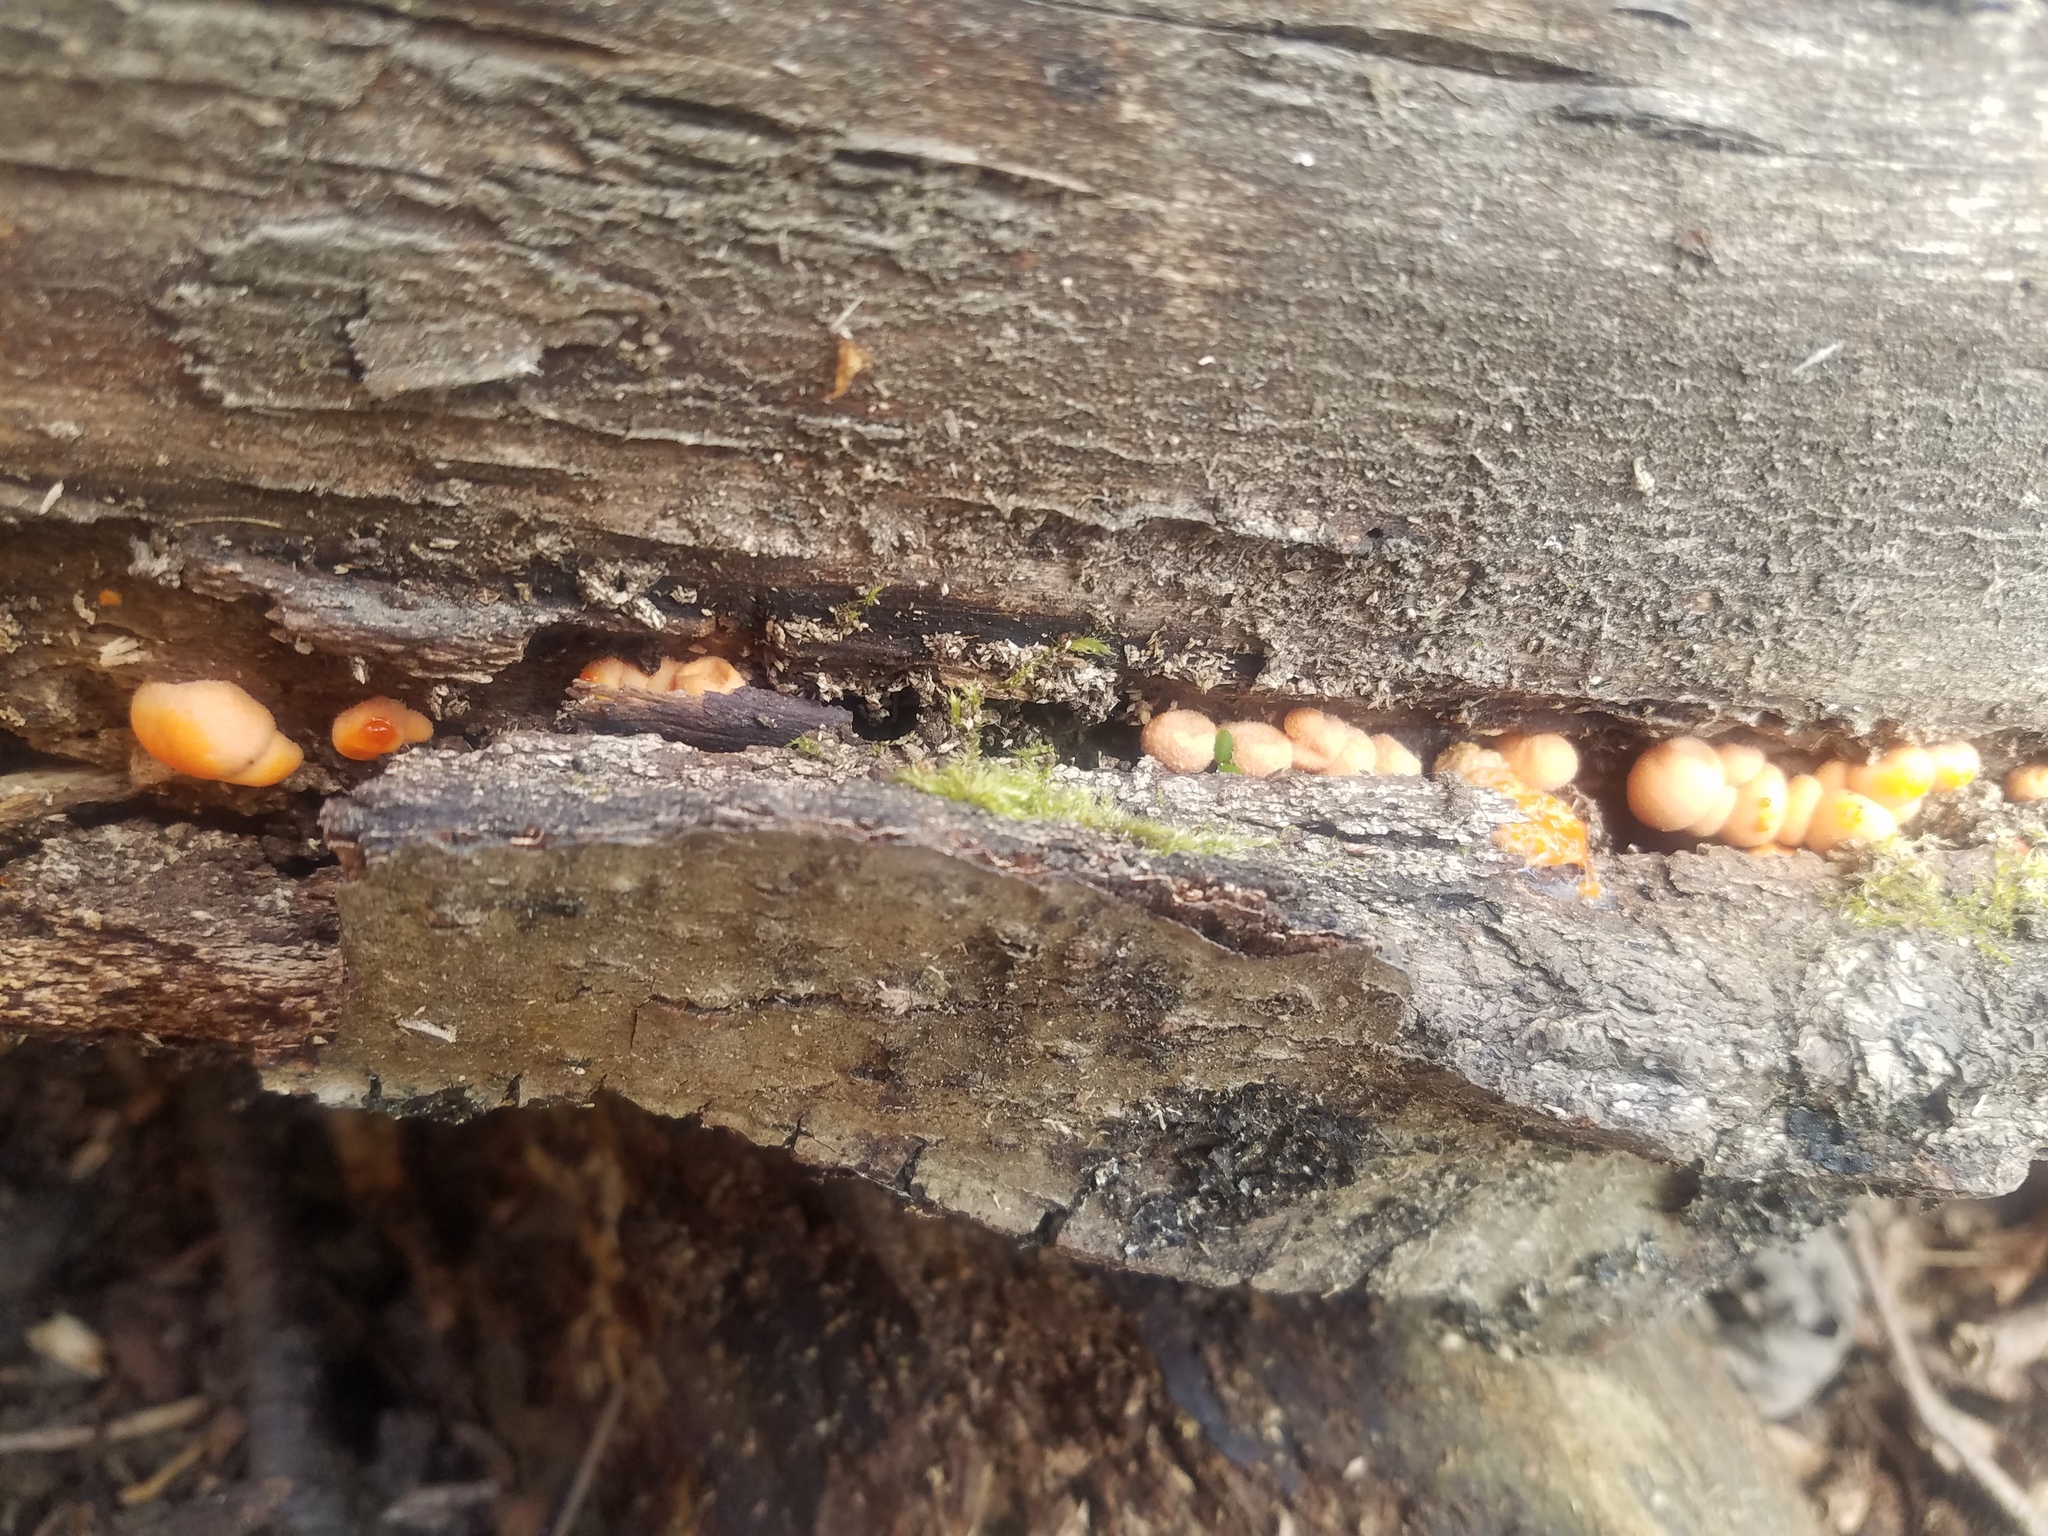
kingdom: Protozoa
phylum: Mycetozoa
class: Myxomycetes
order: Cribrariales
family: Tubiferaceae
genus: Lycogala
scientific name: Lycogala epidendrum
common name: Wolf's milk
